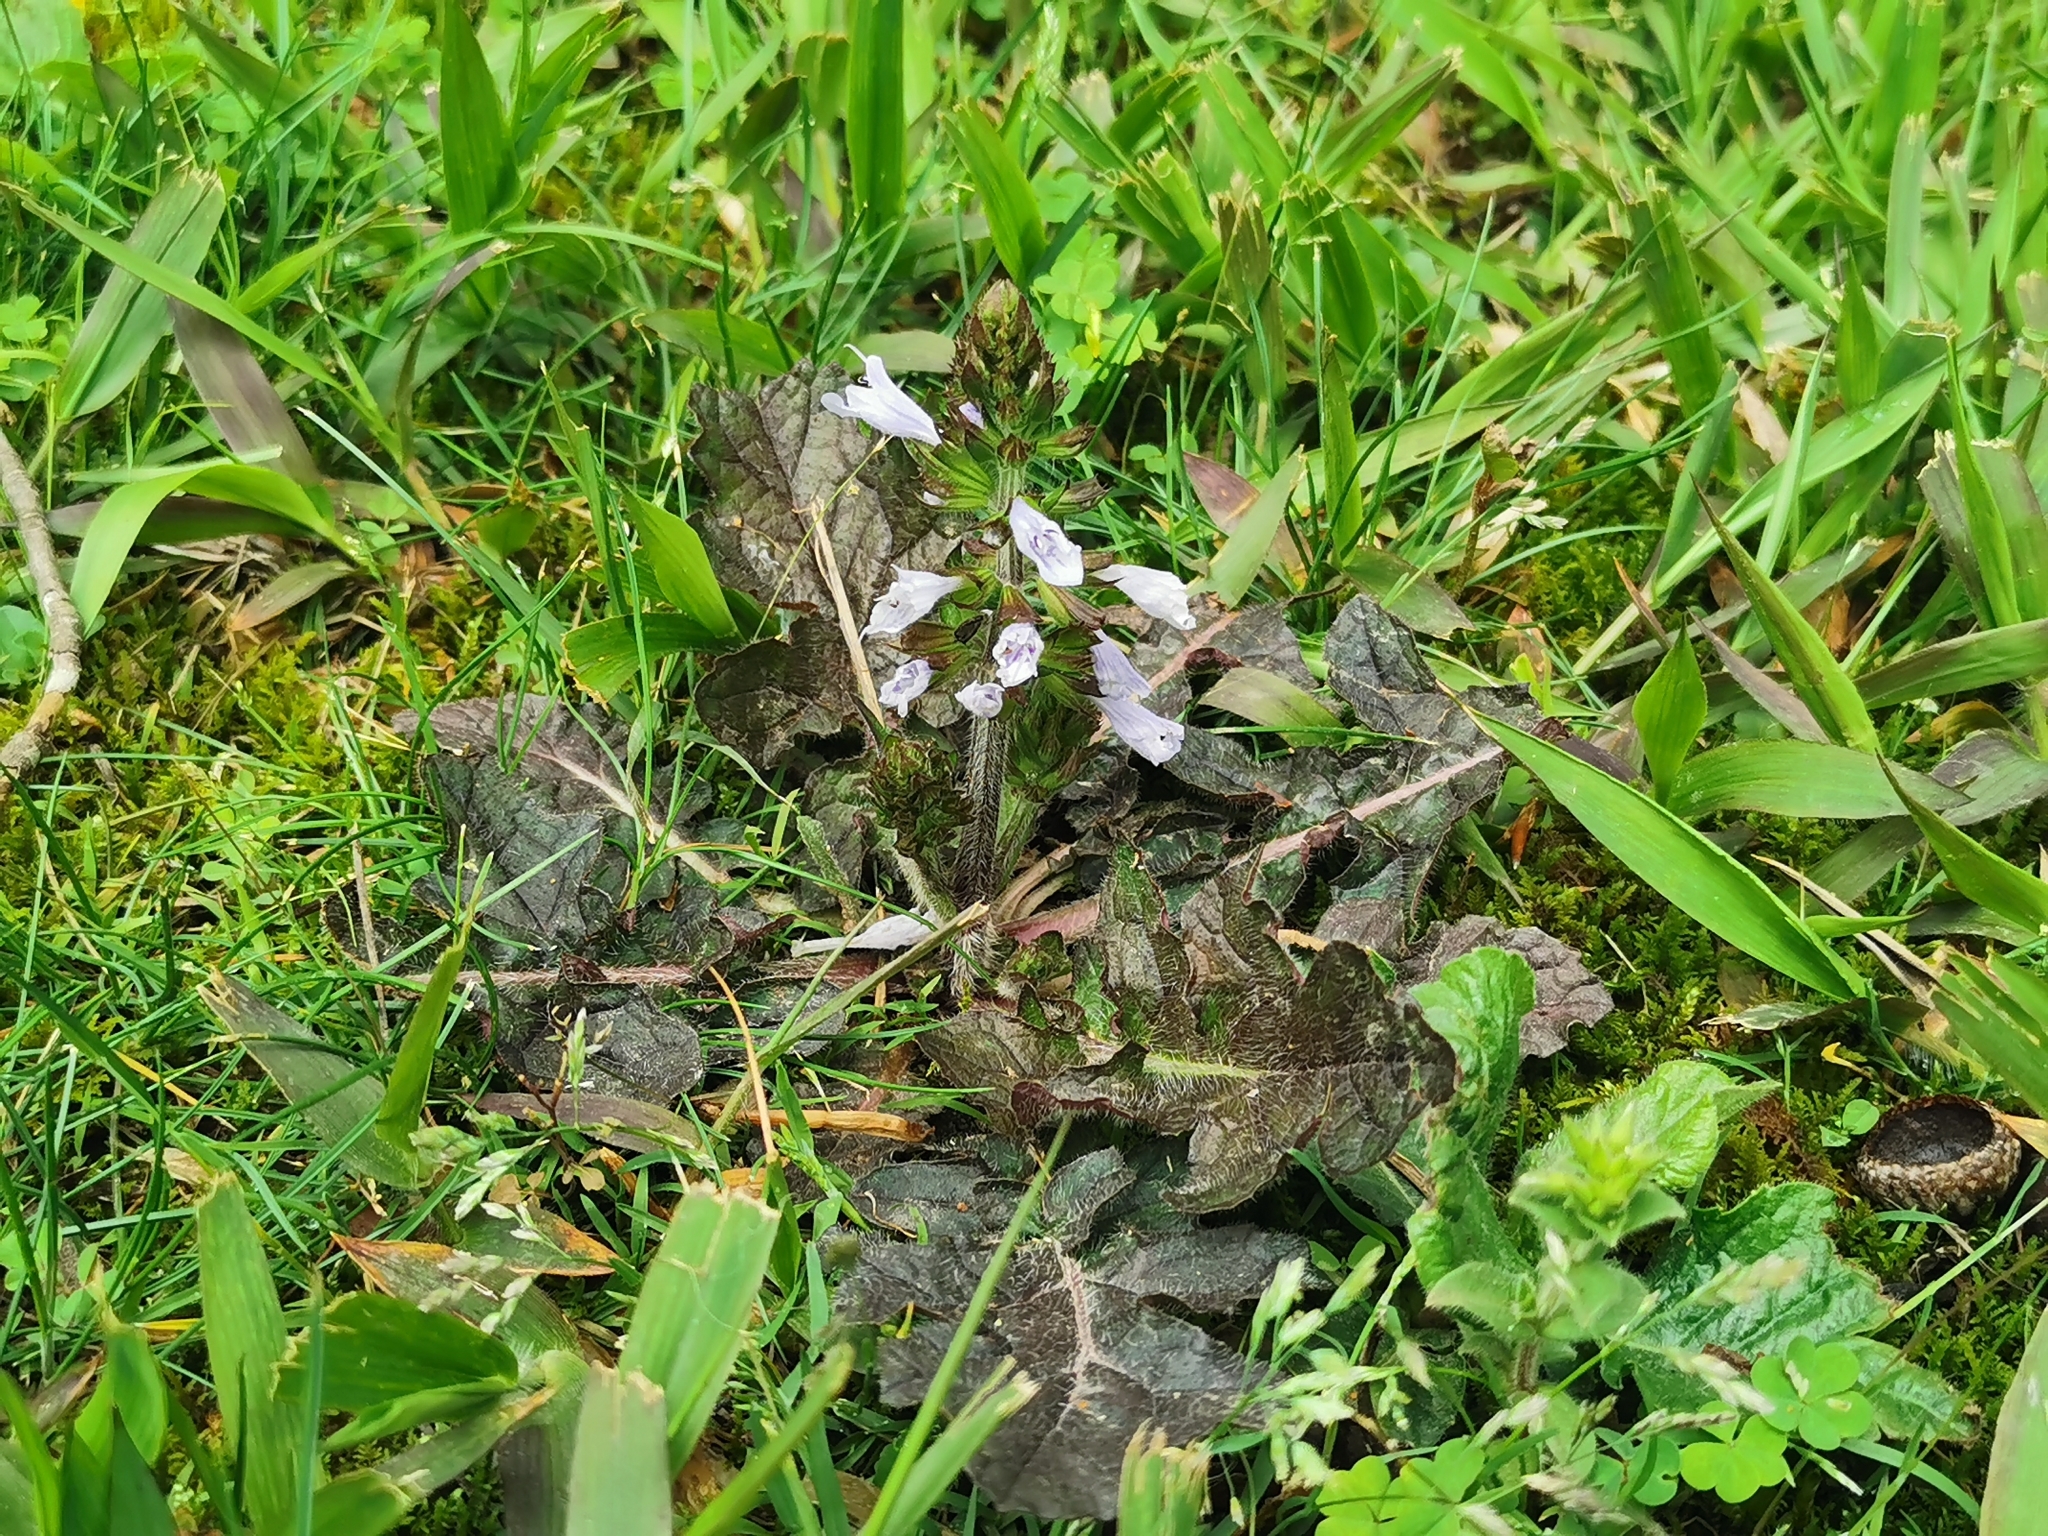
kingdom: Plantae
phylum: Tracheophyta
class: Magnoliopsida
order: Lamiales
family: Lamiaceae
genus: Salvia
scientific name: Salvia lyrata
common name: Cancerweed
